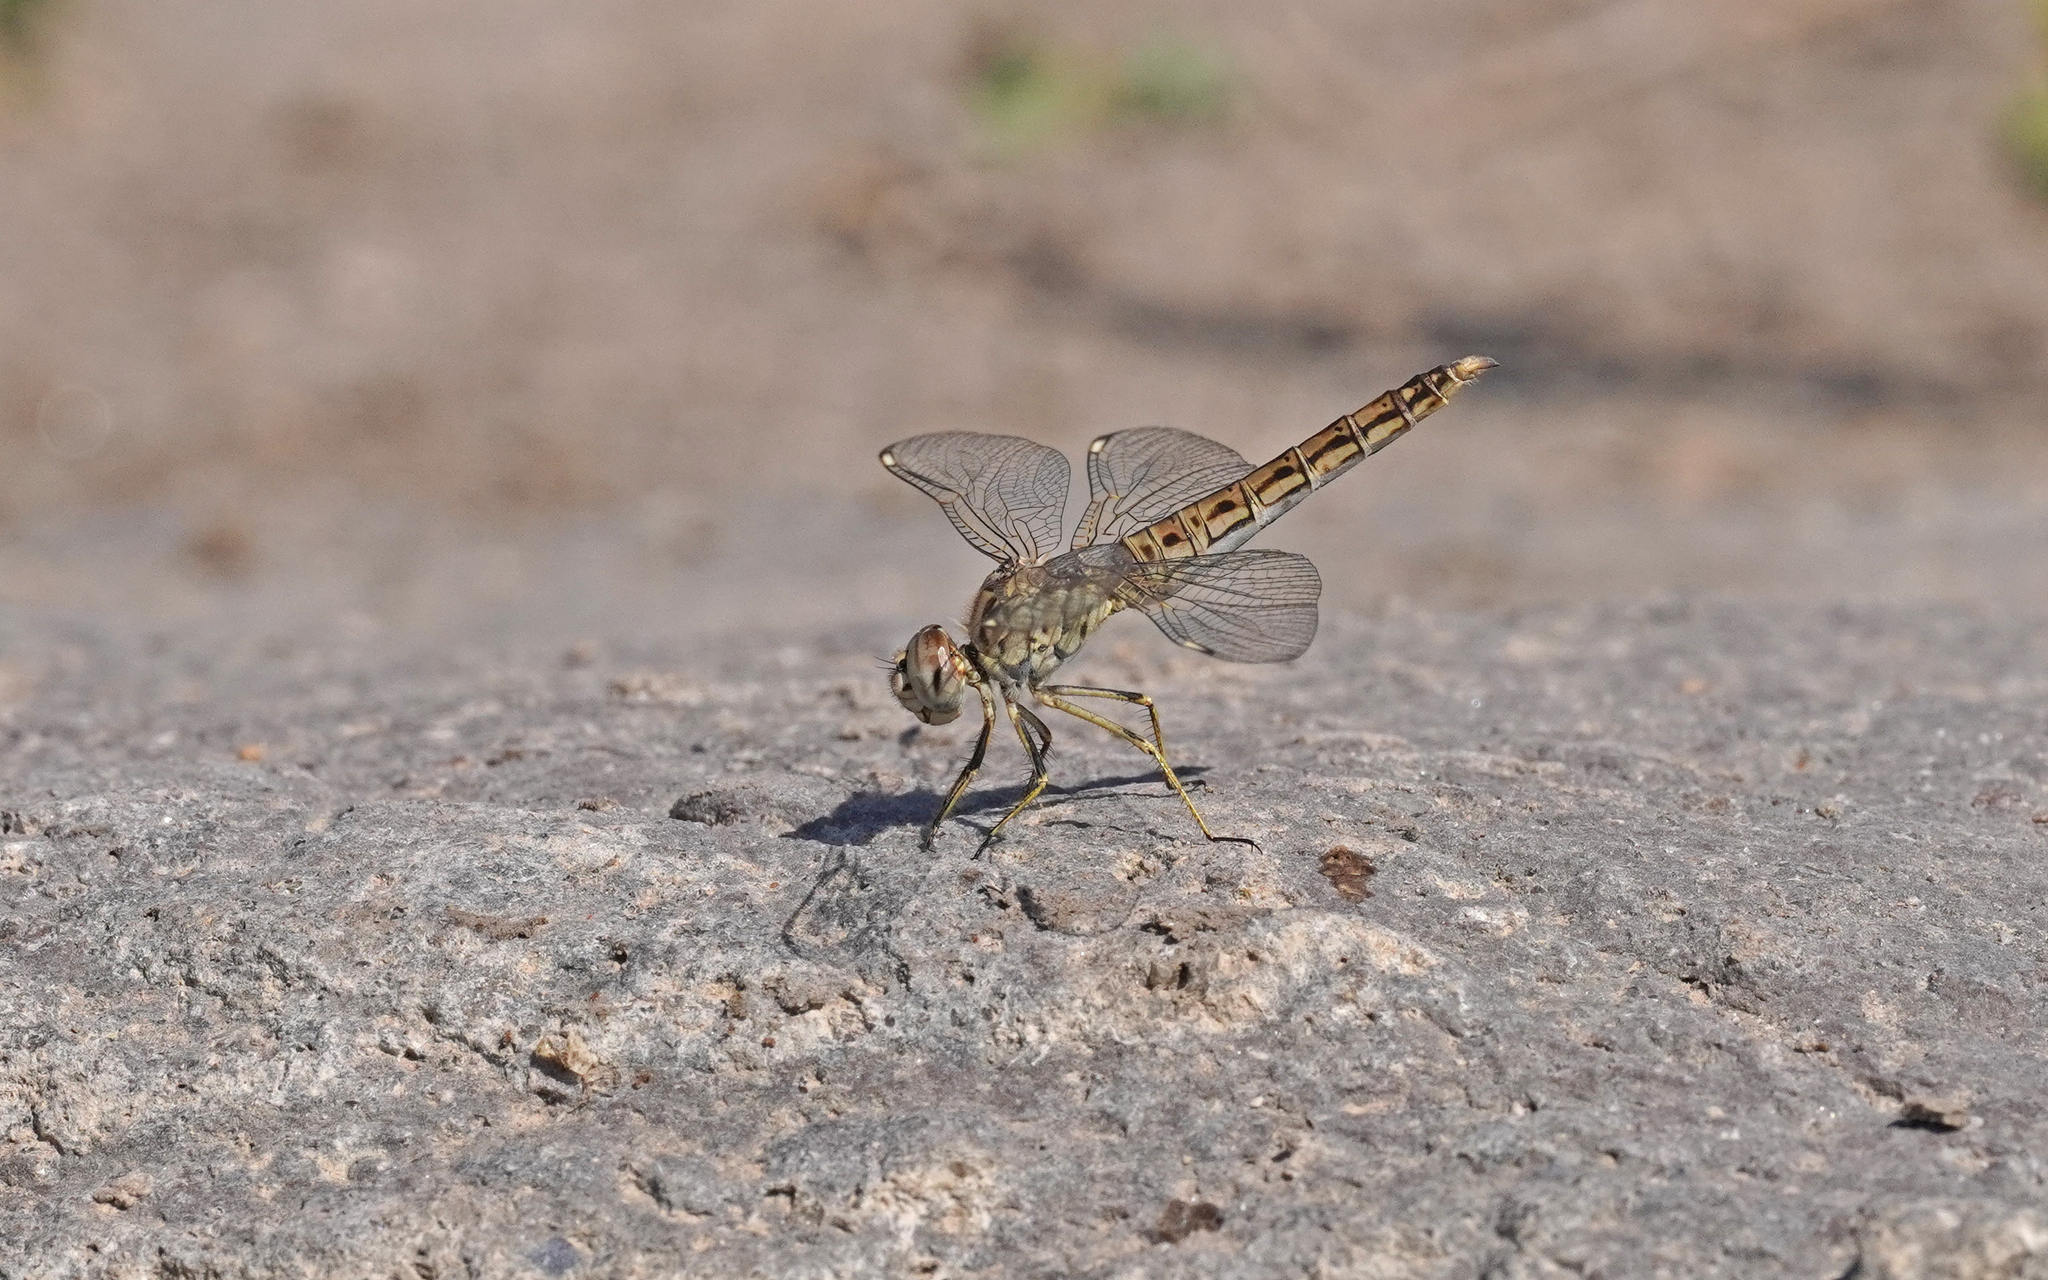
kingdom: Animalia
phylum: Arthropoda
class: Insecta
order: Odonata
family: Libellulidae
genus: Brachythemis
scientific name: Brachythemis impartita
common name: Banded groundling
